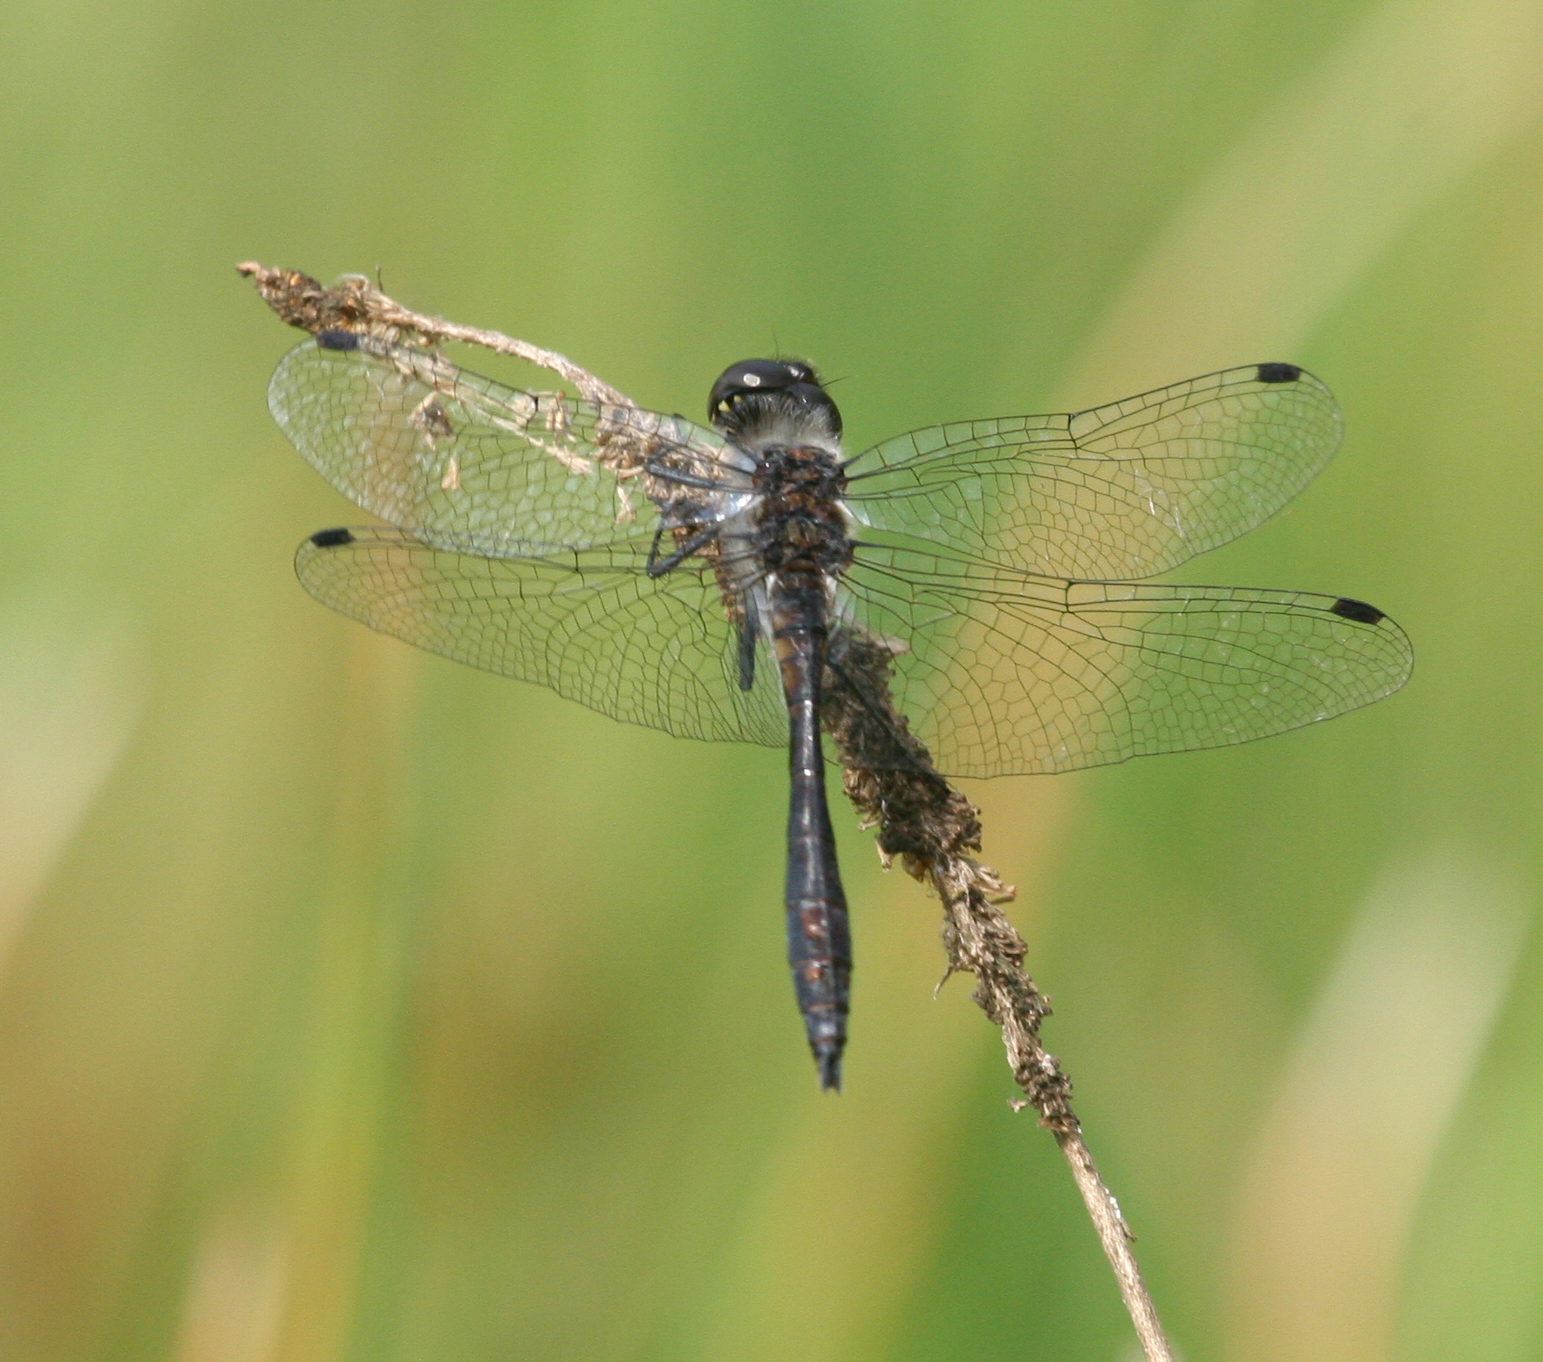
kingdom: Animalia
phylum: Arthropoda
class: Insecta
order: Odonata
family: Libellulidae
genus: Sympetrum
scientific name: Sympetrum danae
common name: Black darter
